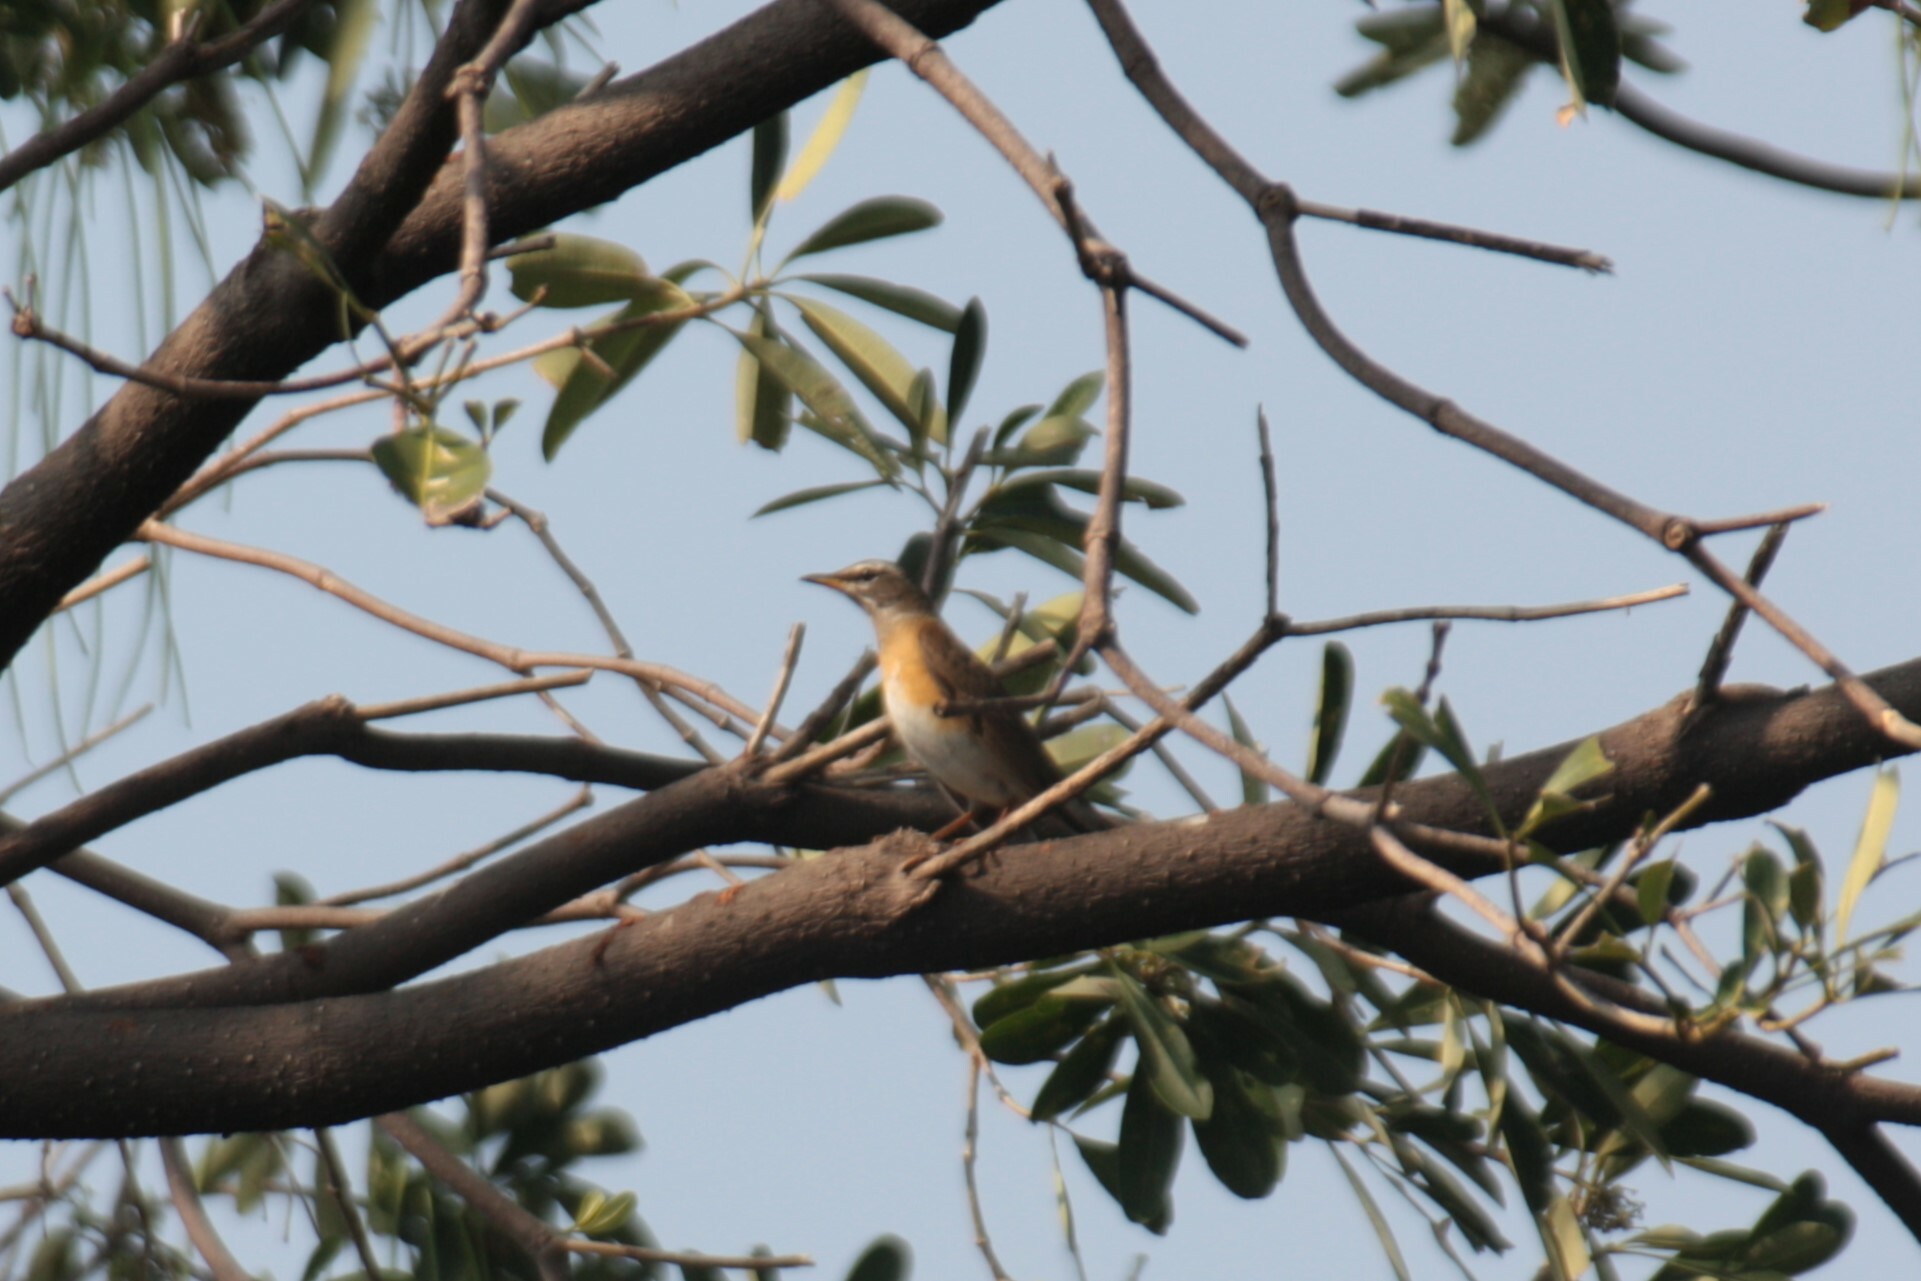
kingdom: Animalia
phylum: Chordata
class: Aves
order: Passeriformes
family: Turdidae
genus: Turdus
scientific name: Turdus obscurus
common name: Eyebrowed thrush
